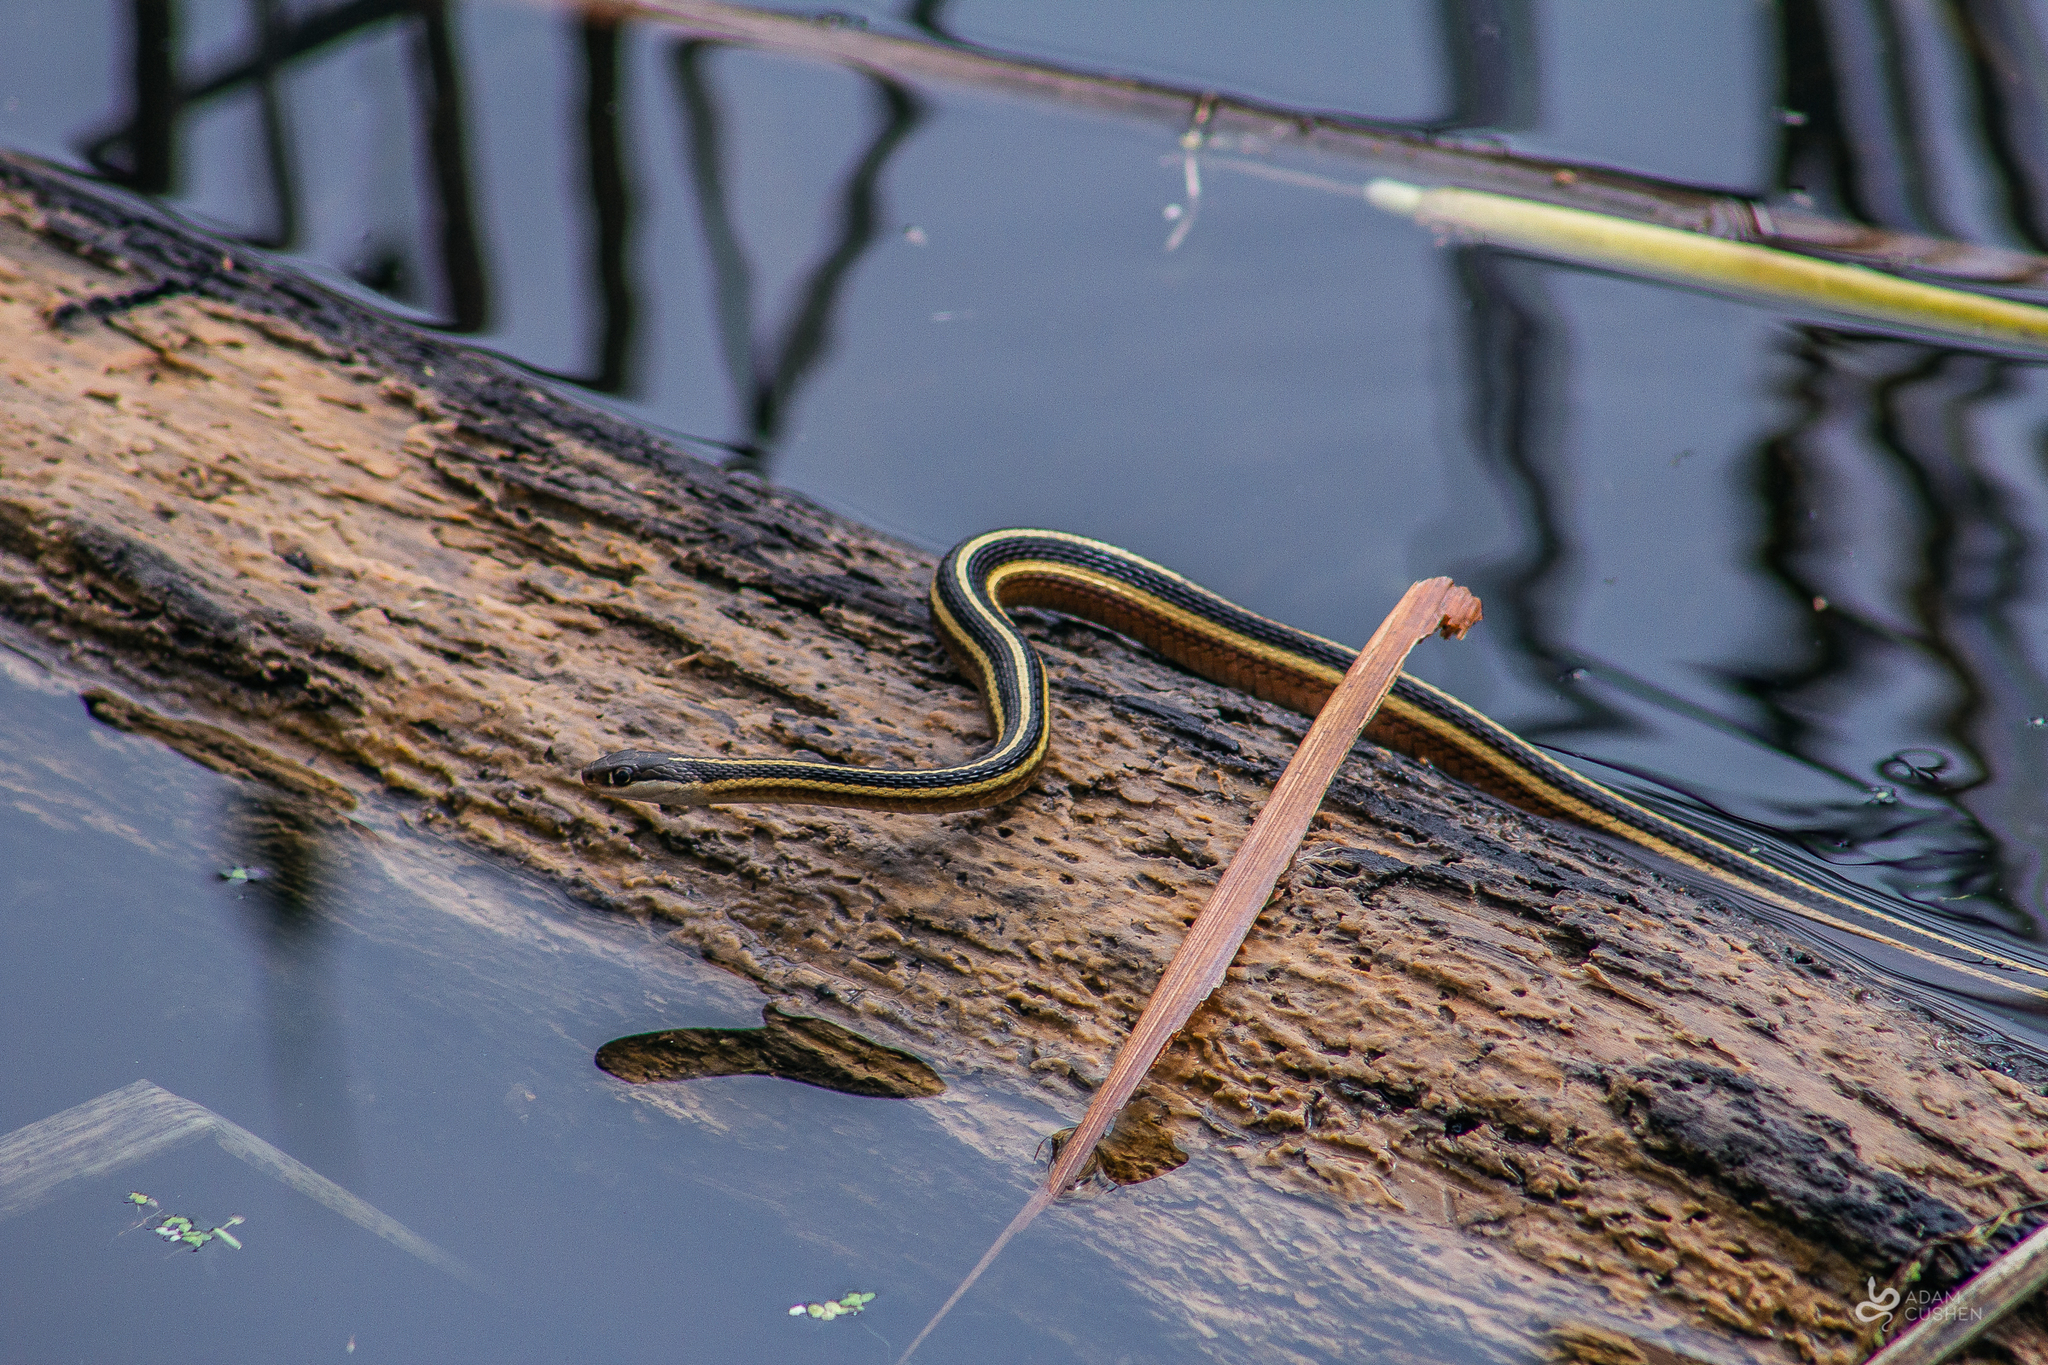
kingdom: Animalia
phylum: Chordata
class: Squamata
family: Colubridae
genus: Thamnophis
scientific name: Thamnophis saurita
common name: Eastern ribbonsnake
